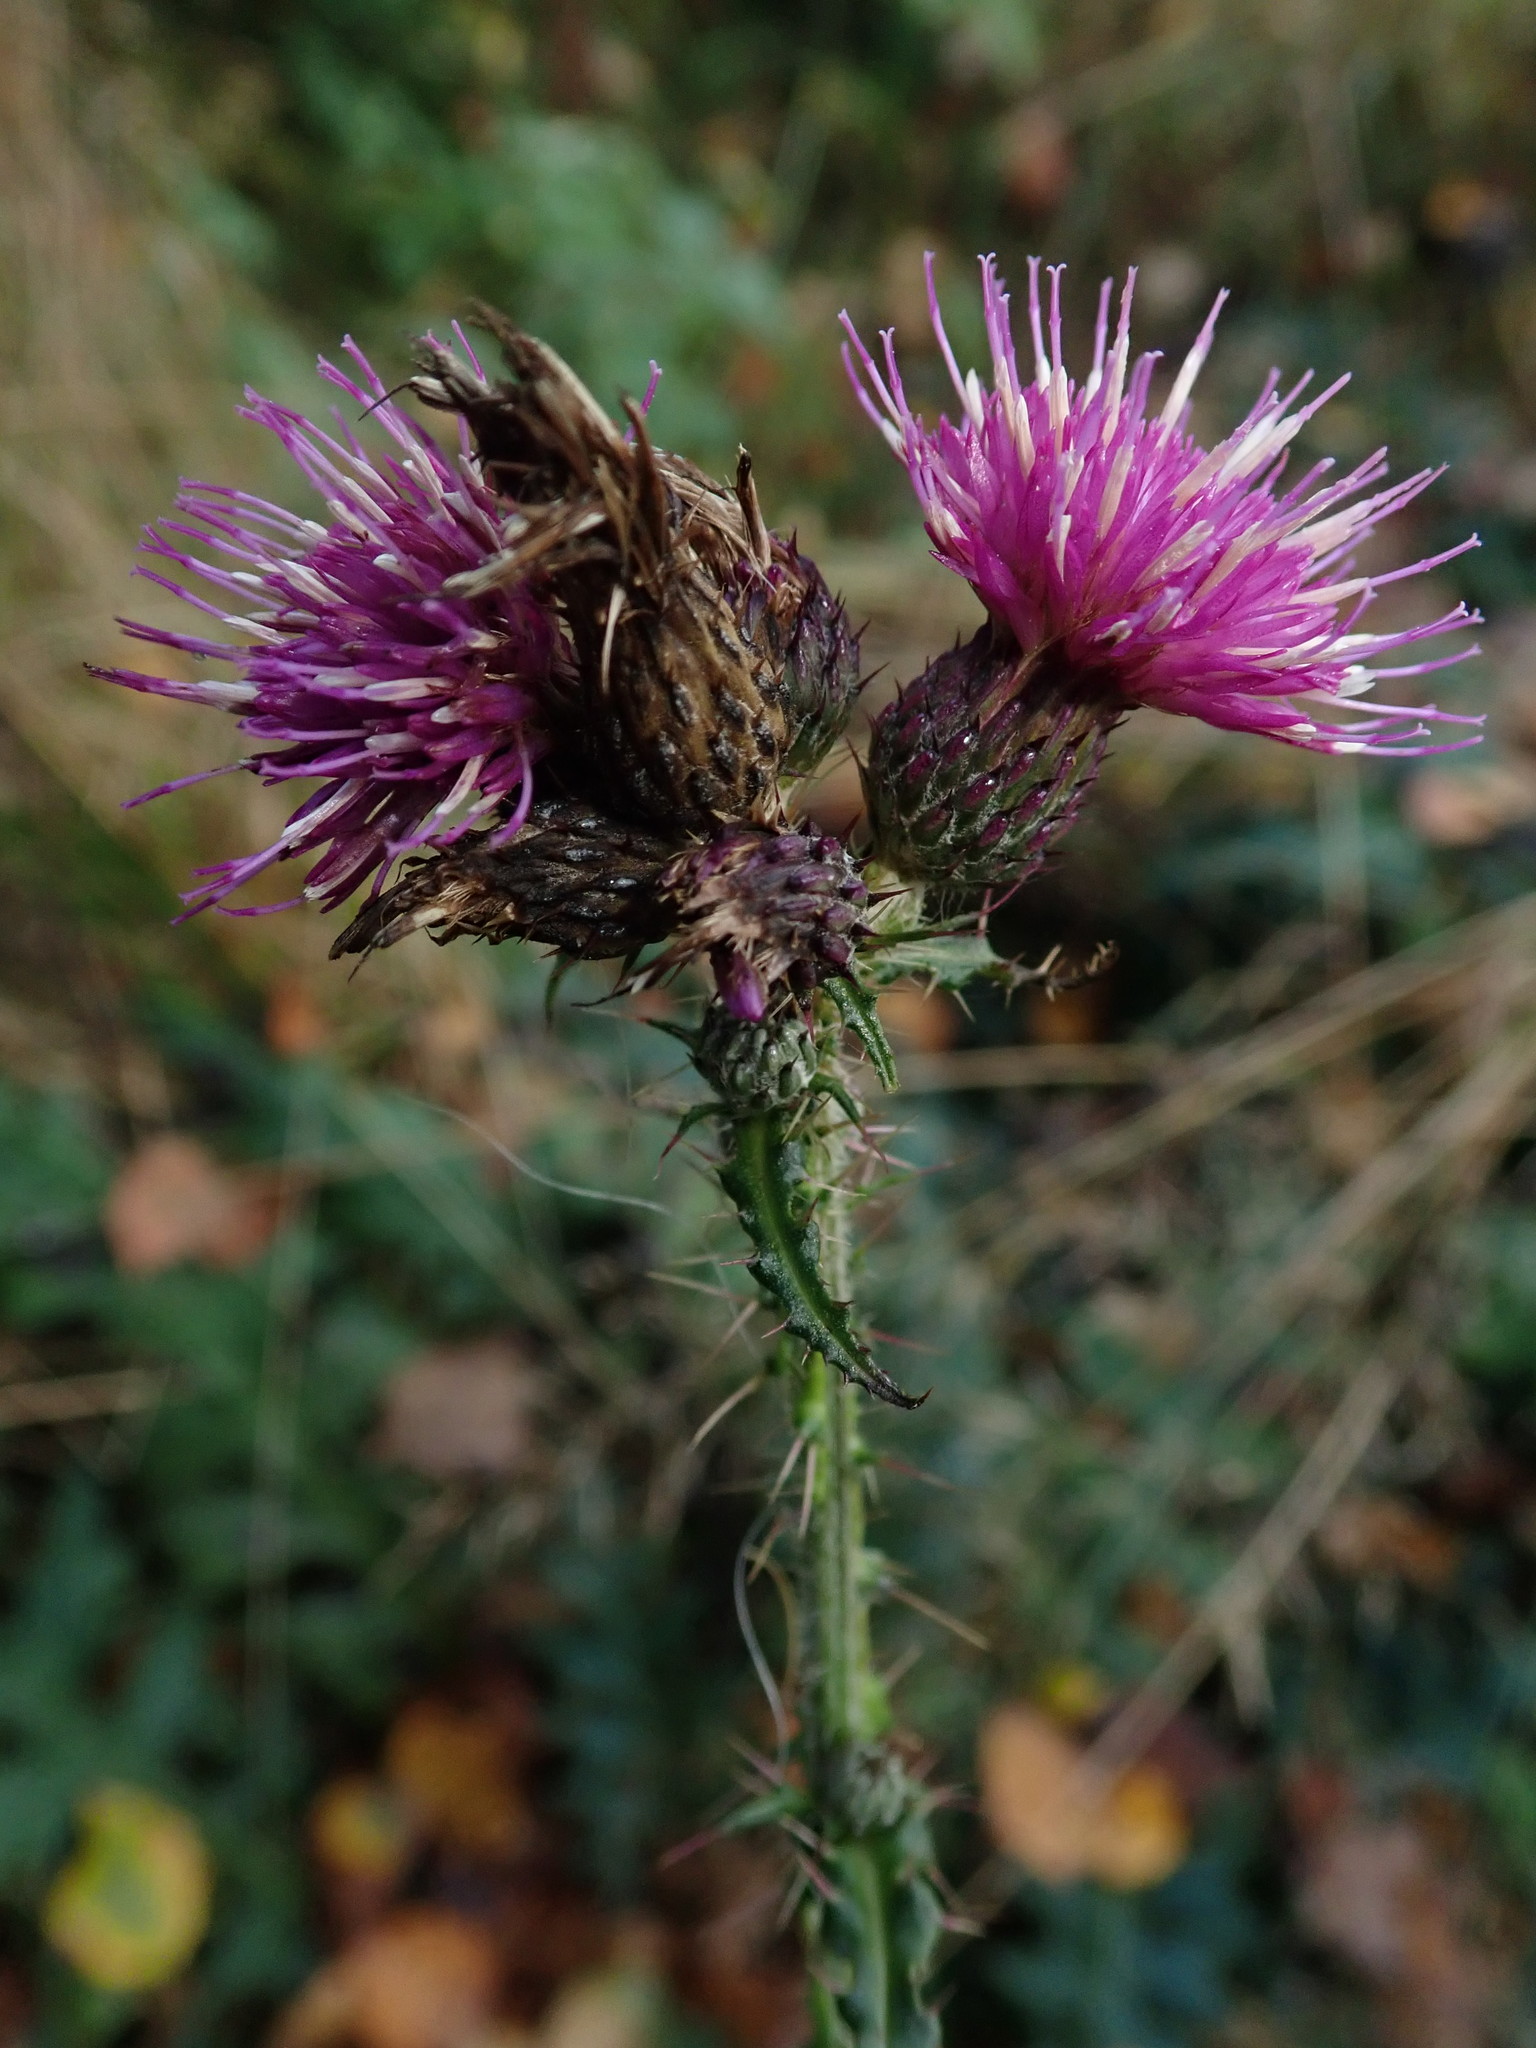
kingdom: Plantae
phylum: Tracheophyta
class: Magnoliopsida
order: Asterales
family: Asteraceae
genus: Cirsium
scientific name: Cirsium palustre
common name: Marsh thistle
